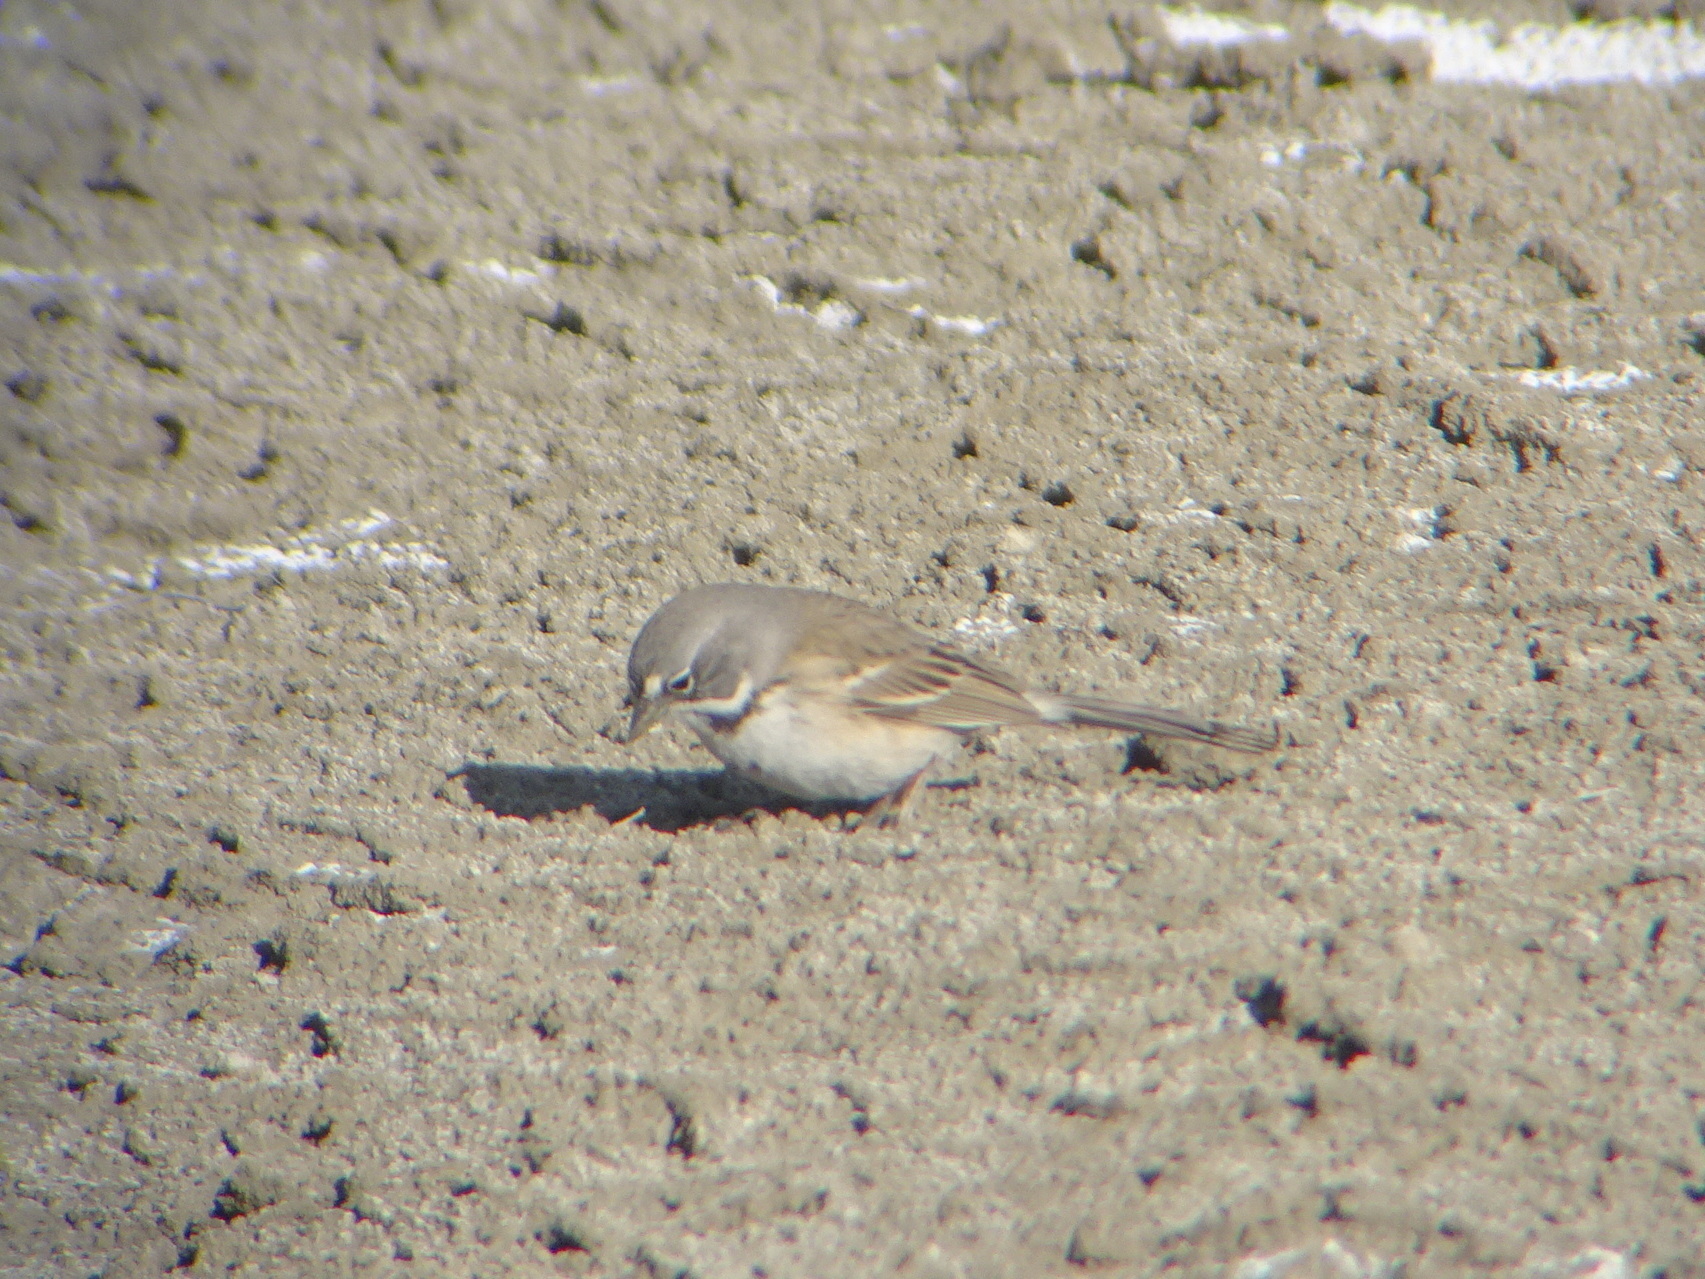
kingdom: Animalia
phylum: Chordata
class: Aves
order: Passeriformes
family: Passerellidae
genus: Artemisiospiza
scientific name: Artemisiospiza belli
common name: Bell's sparrow
